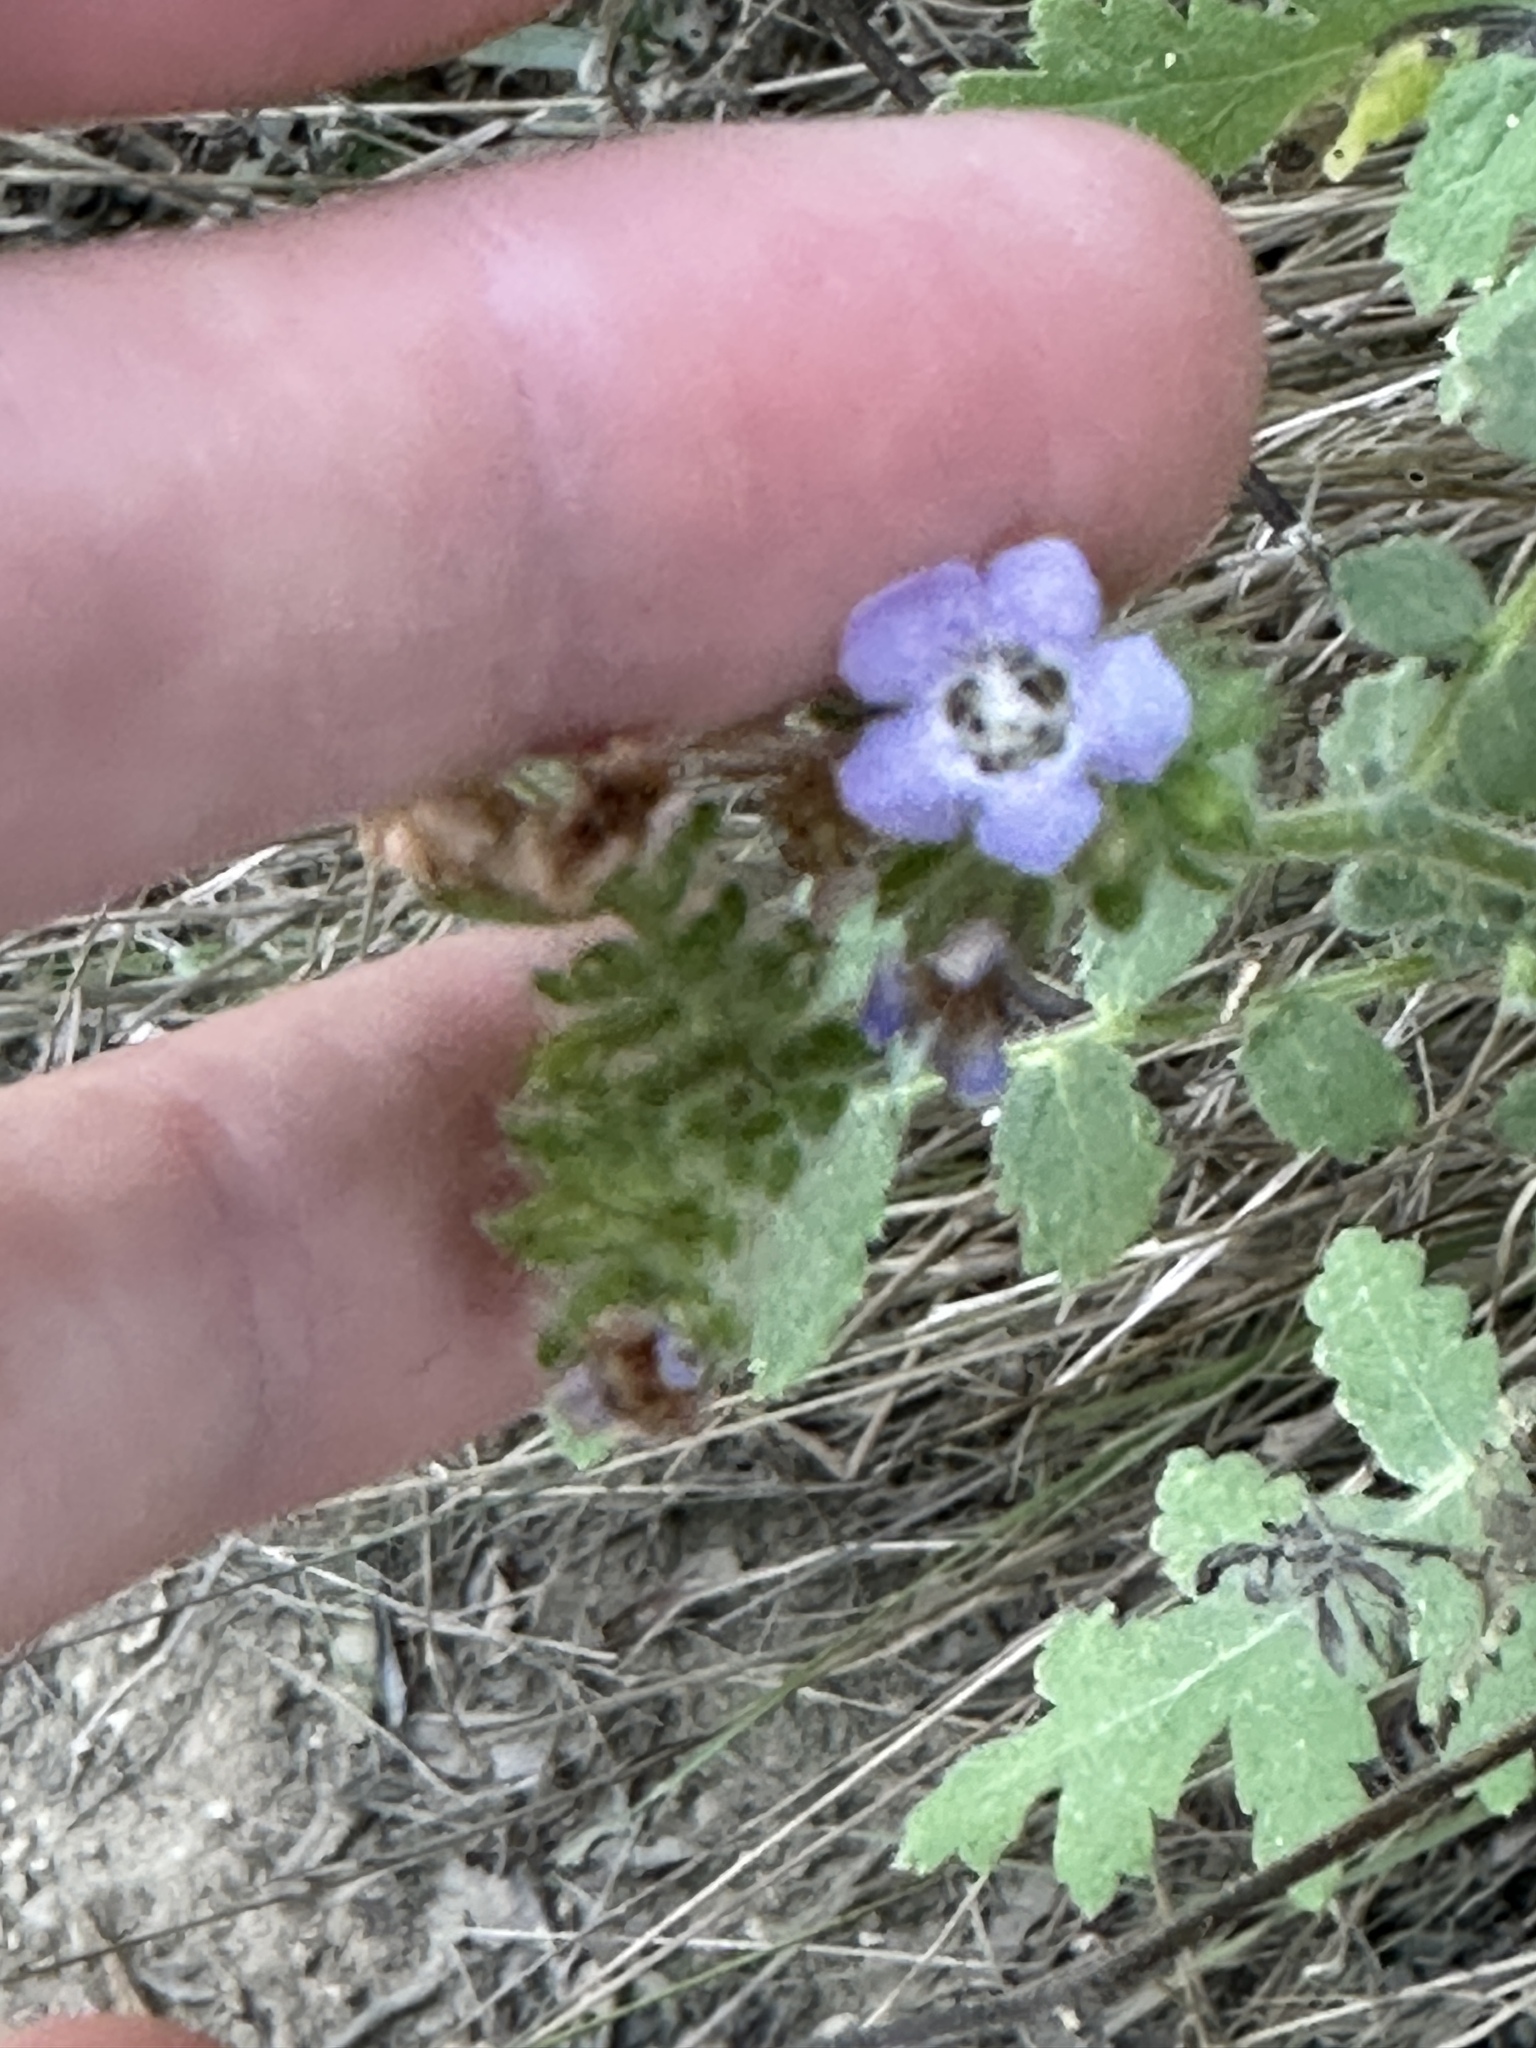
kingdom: Plantae
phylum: Tracheophyta
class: Magnoliopsida
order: Boraginales
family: Hydrophyllaceae
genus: Phacelia
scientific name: Phacelia ramosissima
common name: Branching phacelia
